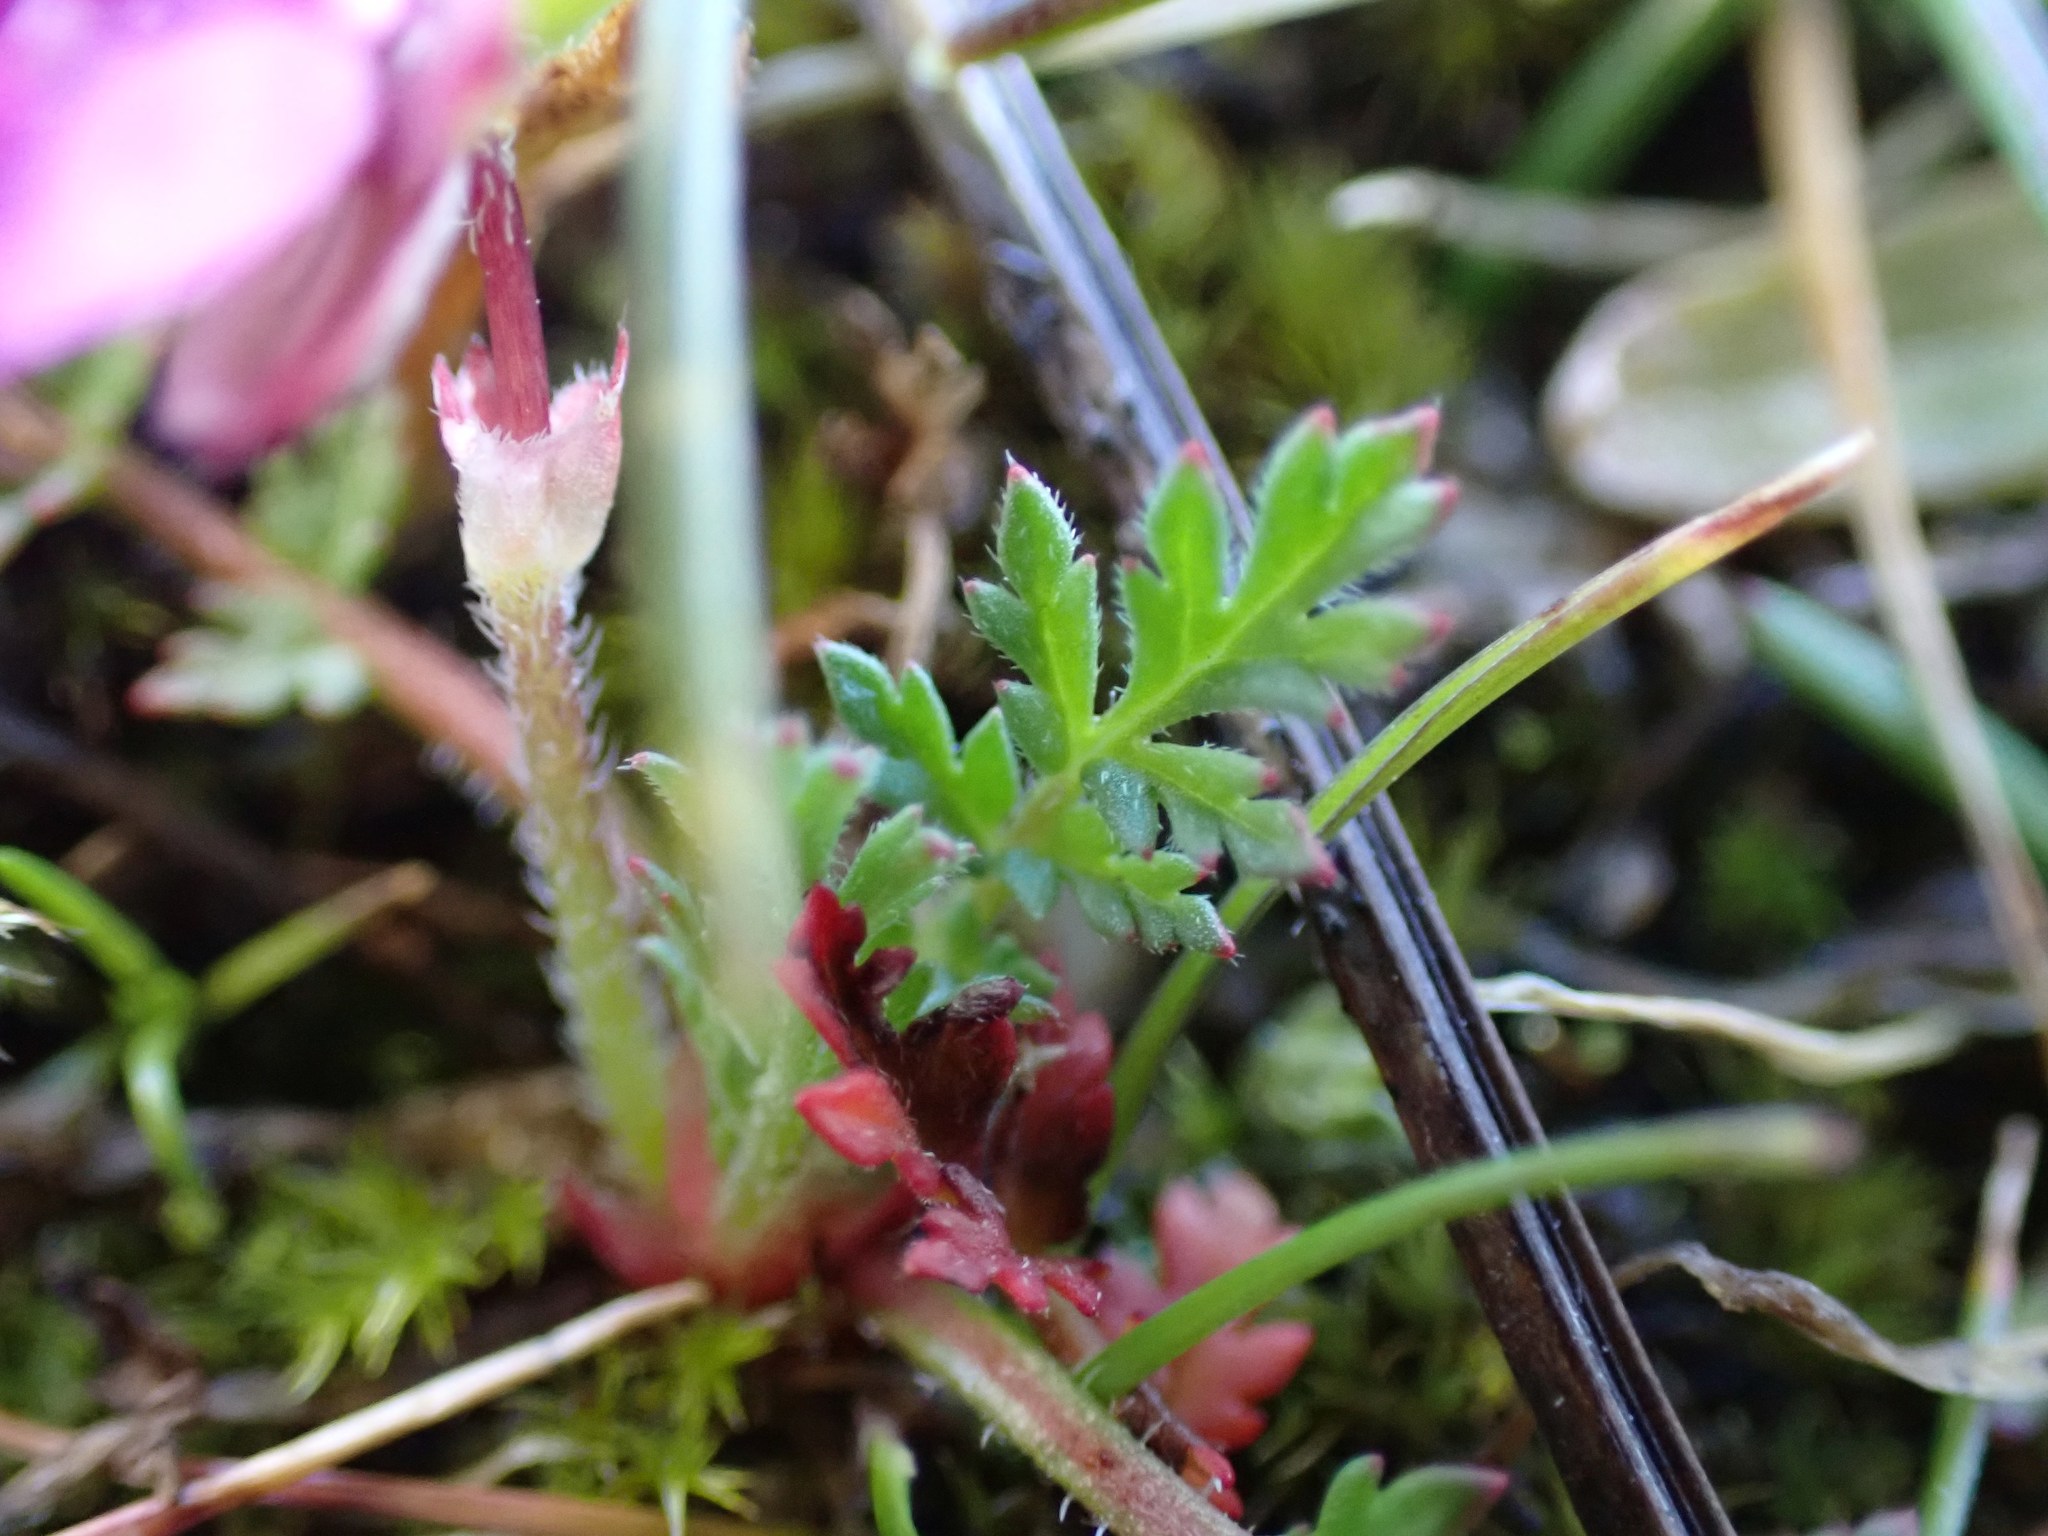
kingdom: Plantae
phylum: Tracheophyta
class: Magnoliopsida
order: Geraniales
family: Geraniaceae
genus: Erodium
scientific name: Erodium cicutarium
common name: Common stork's-bill
